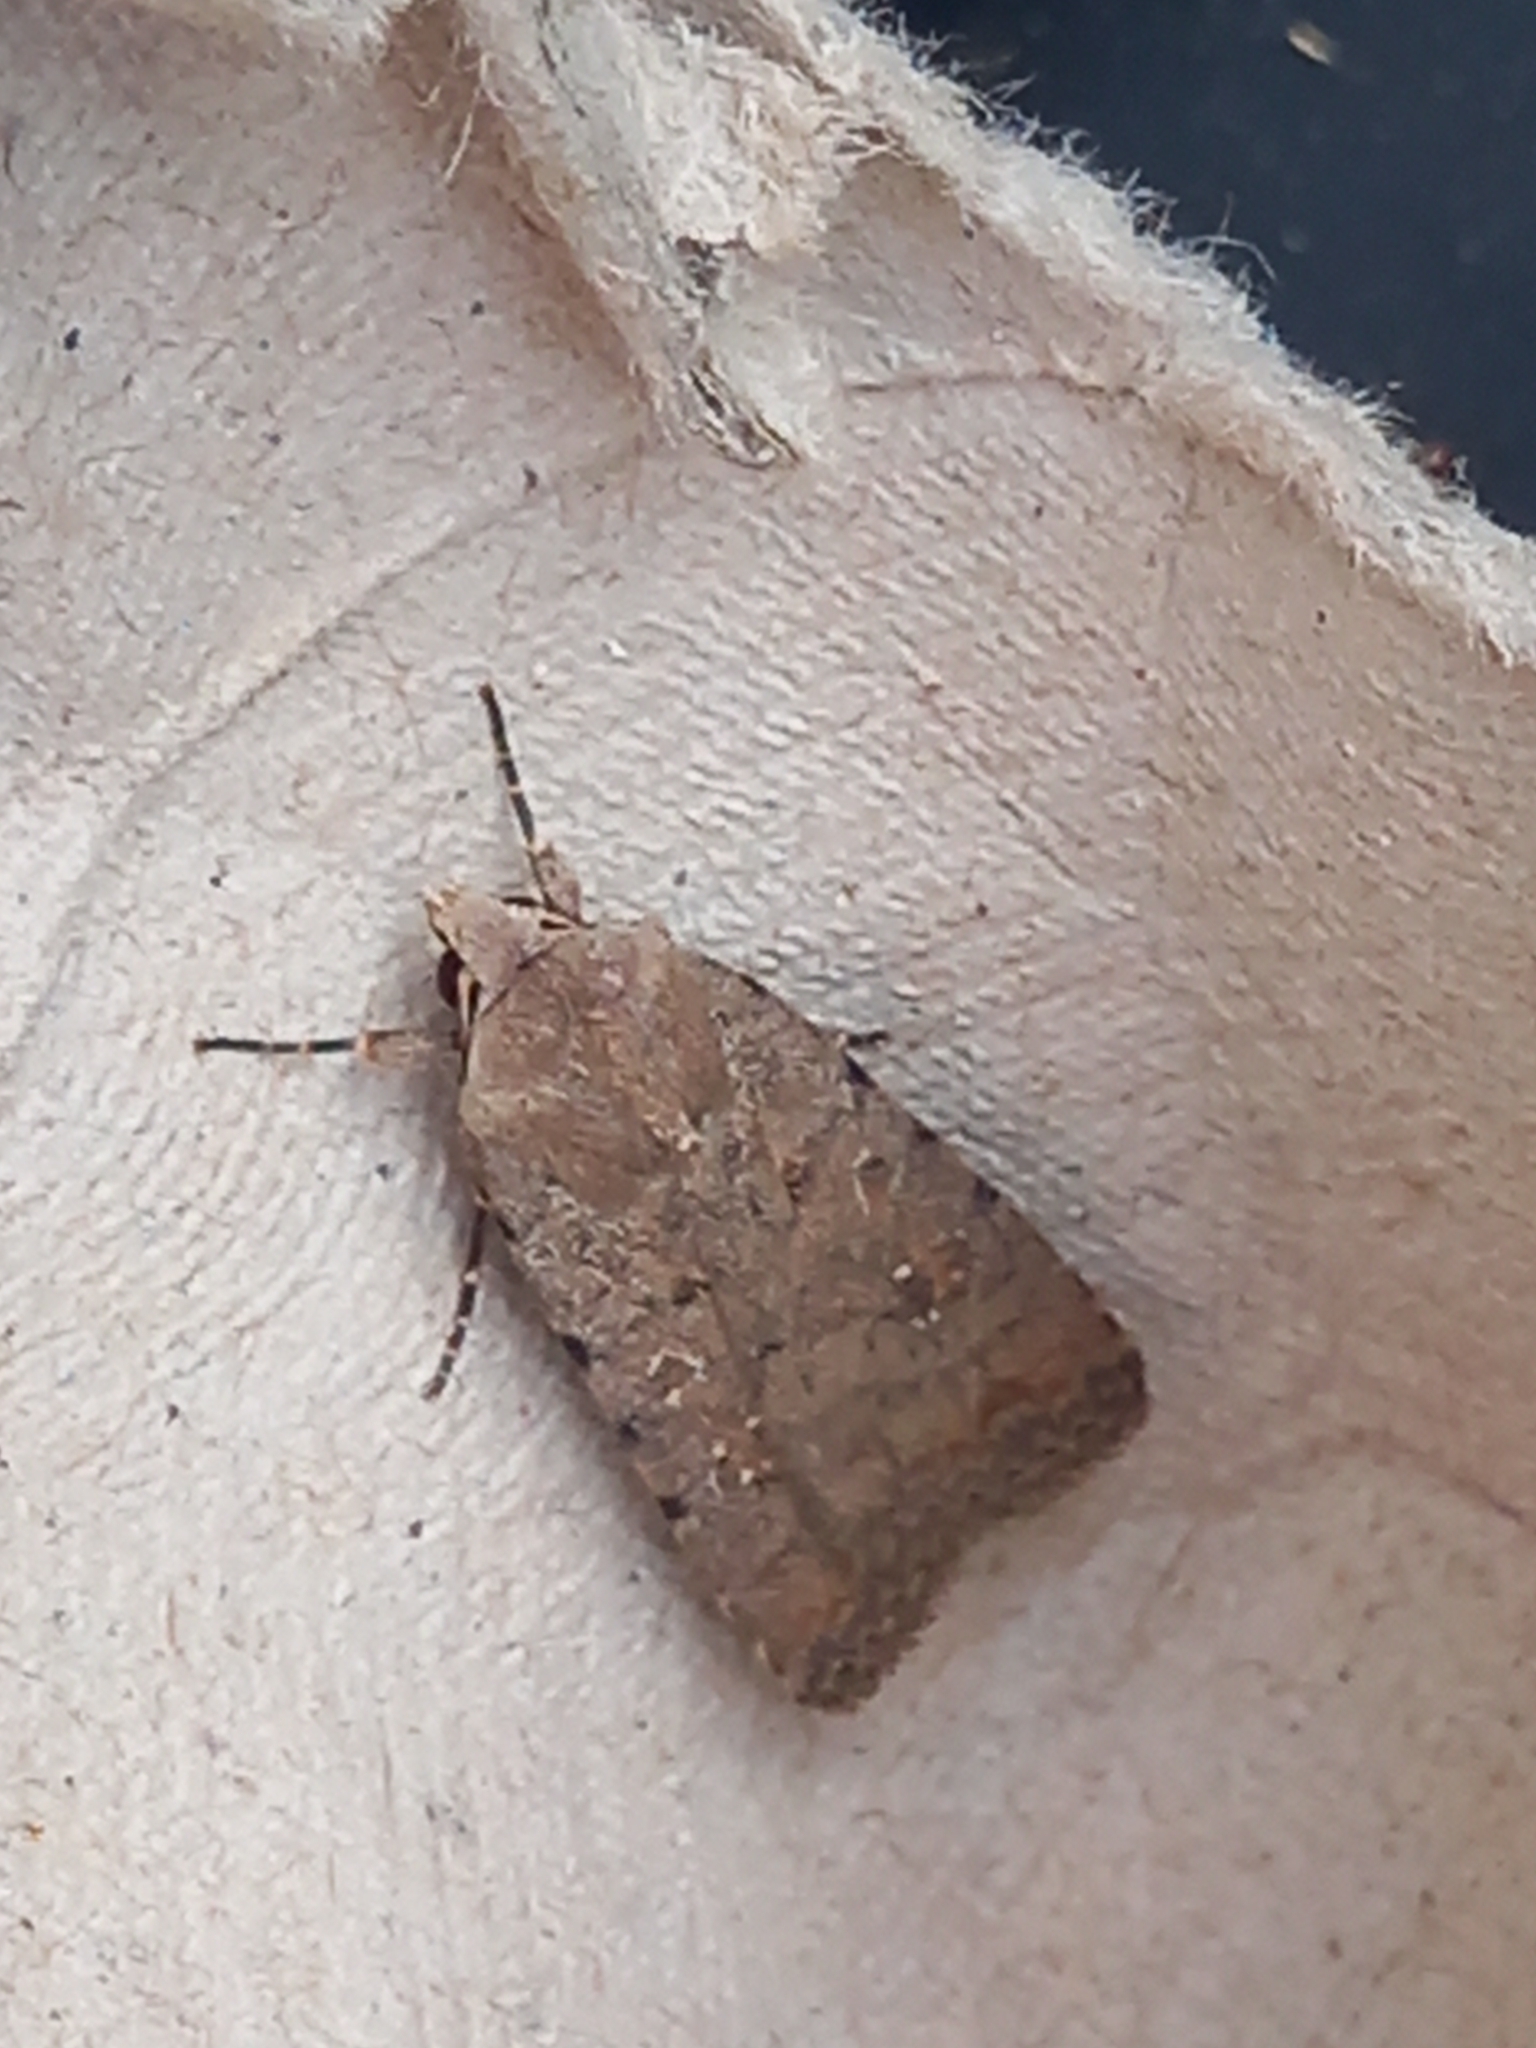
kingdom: Animalia
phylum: Arthropoda
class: Insecta
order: Lepidoptera
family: Noctuidae
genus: Caradrina
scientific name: Caradrina clavipalpis
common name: Pale mottled willow
